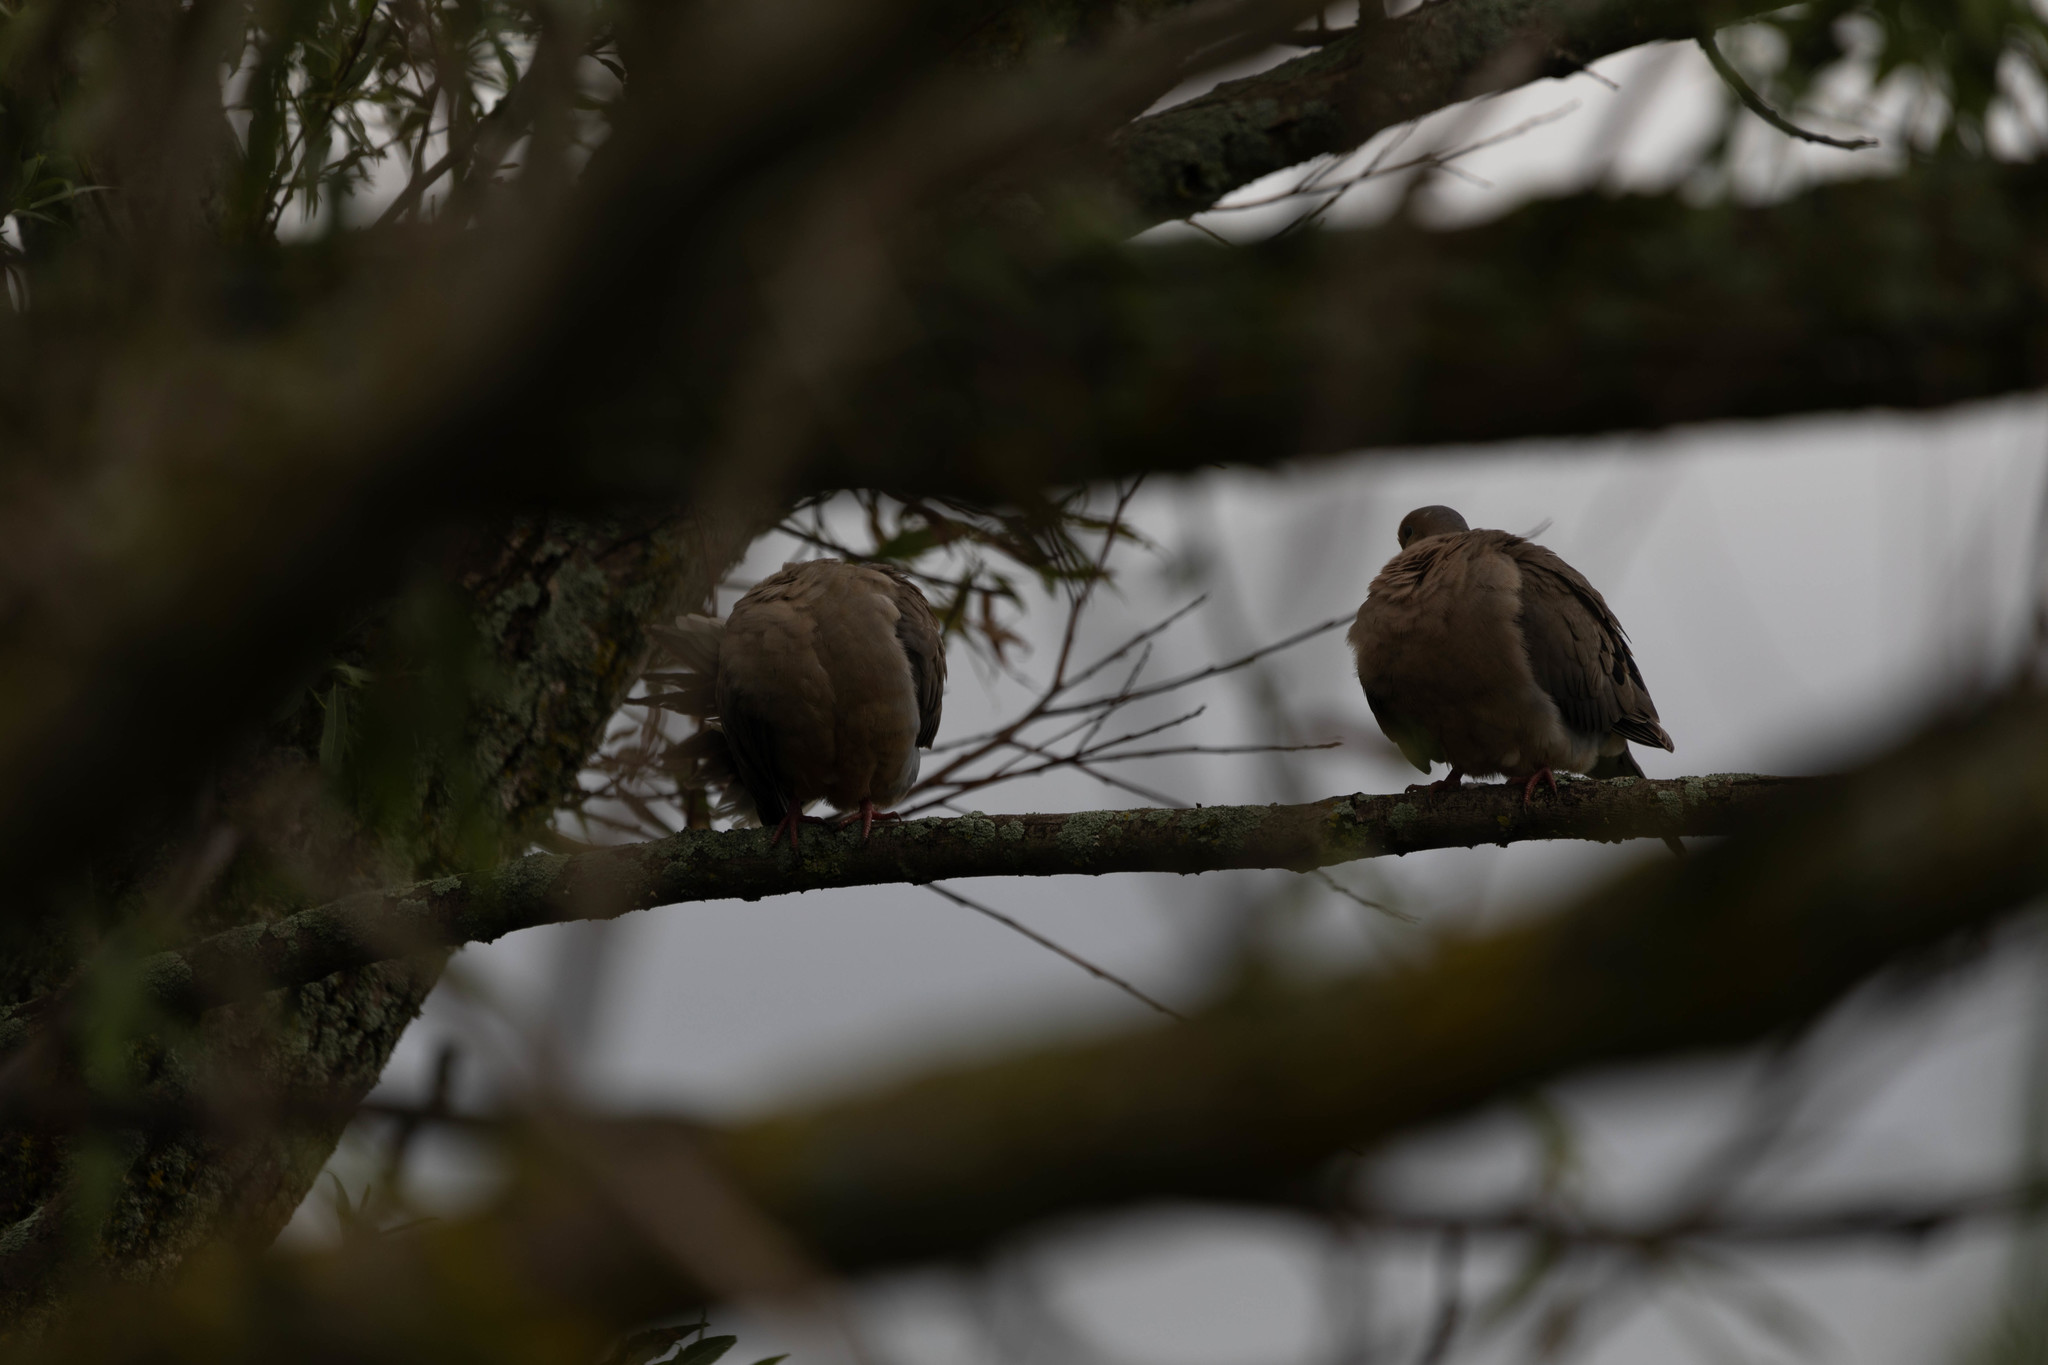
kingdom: Animalia
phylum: Chordata
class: Aves
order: Columbiformes
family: Columbidae
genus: Zenaida
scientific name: Zenaida macroura
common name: Mourning dove
